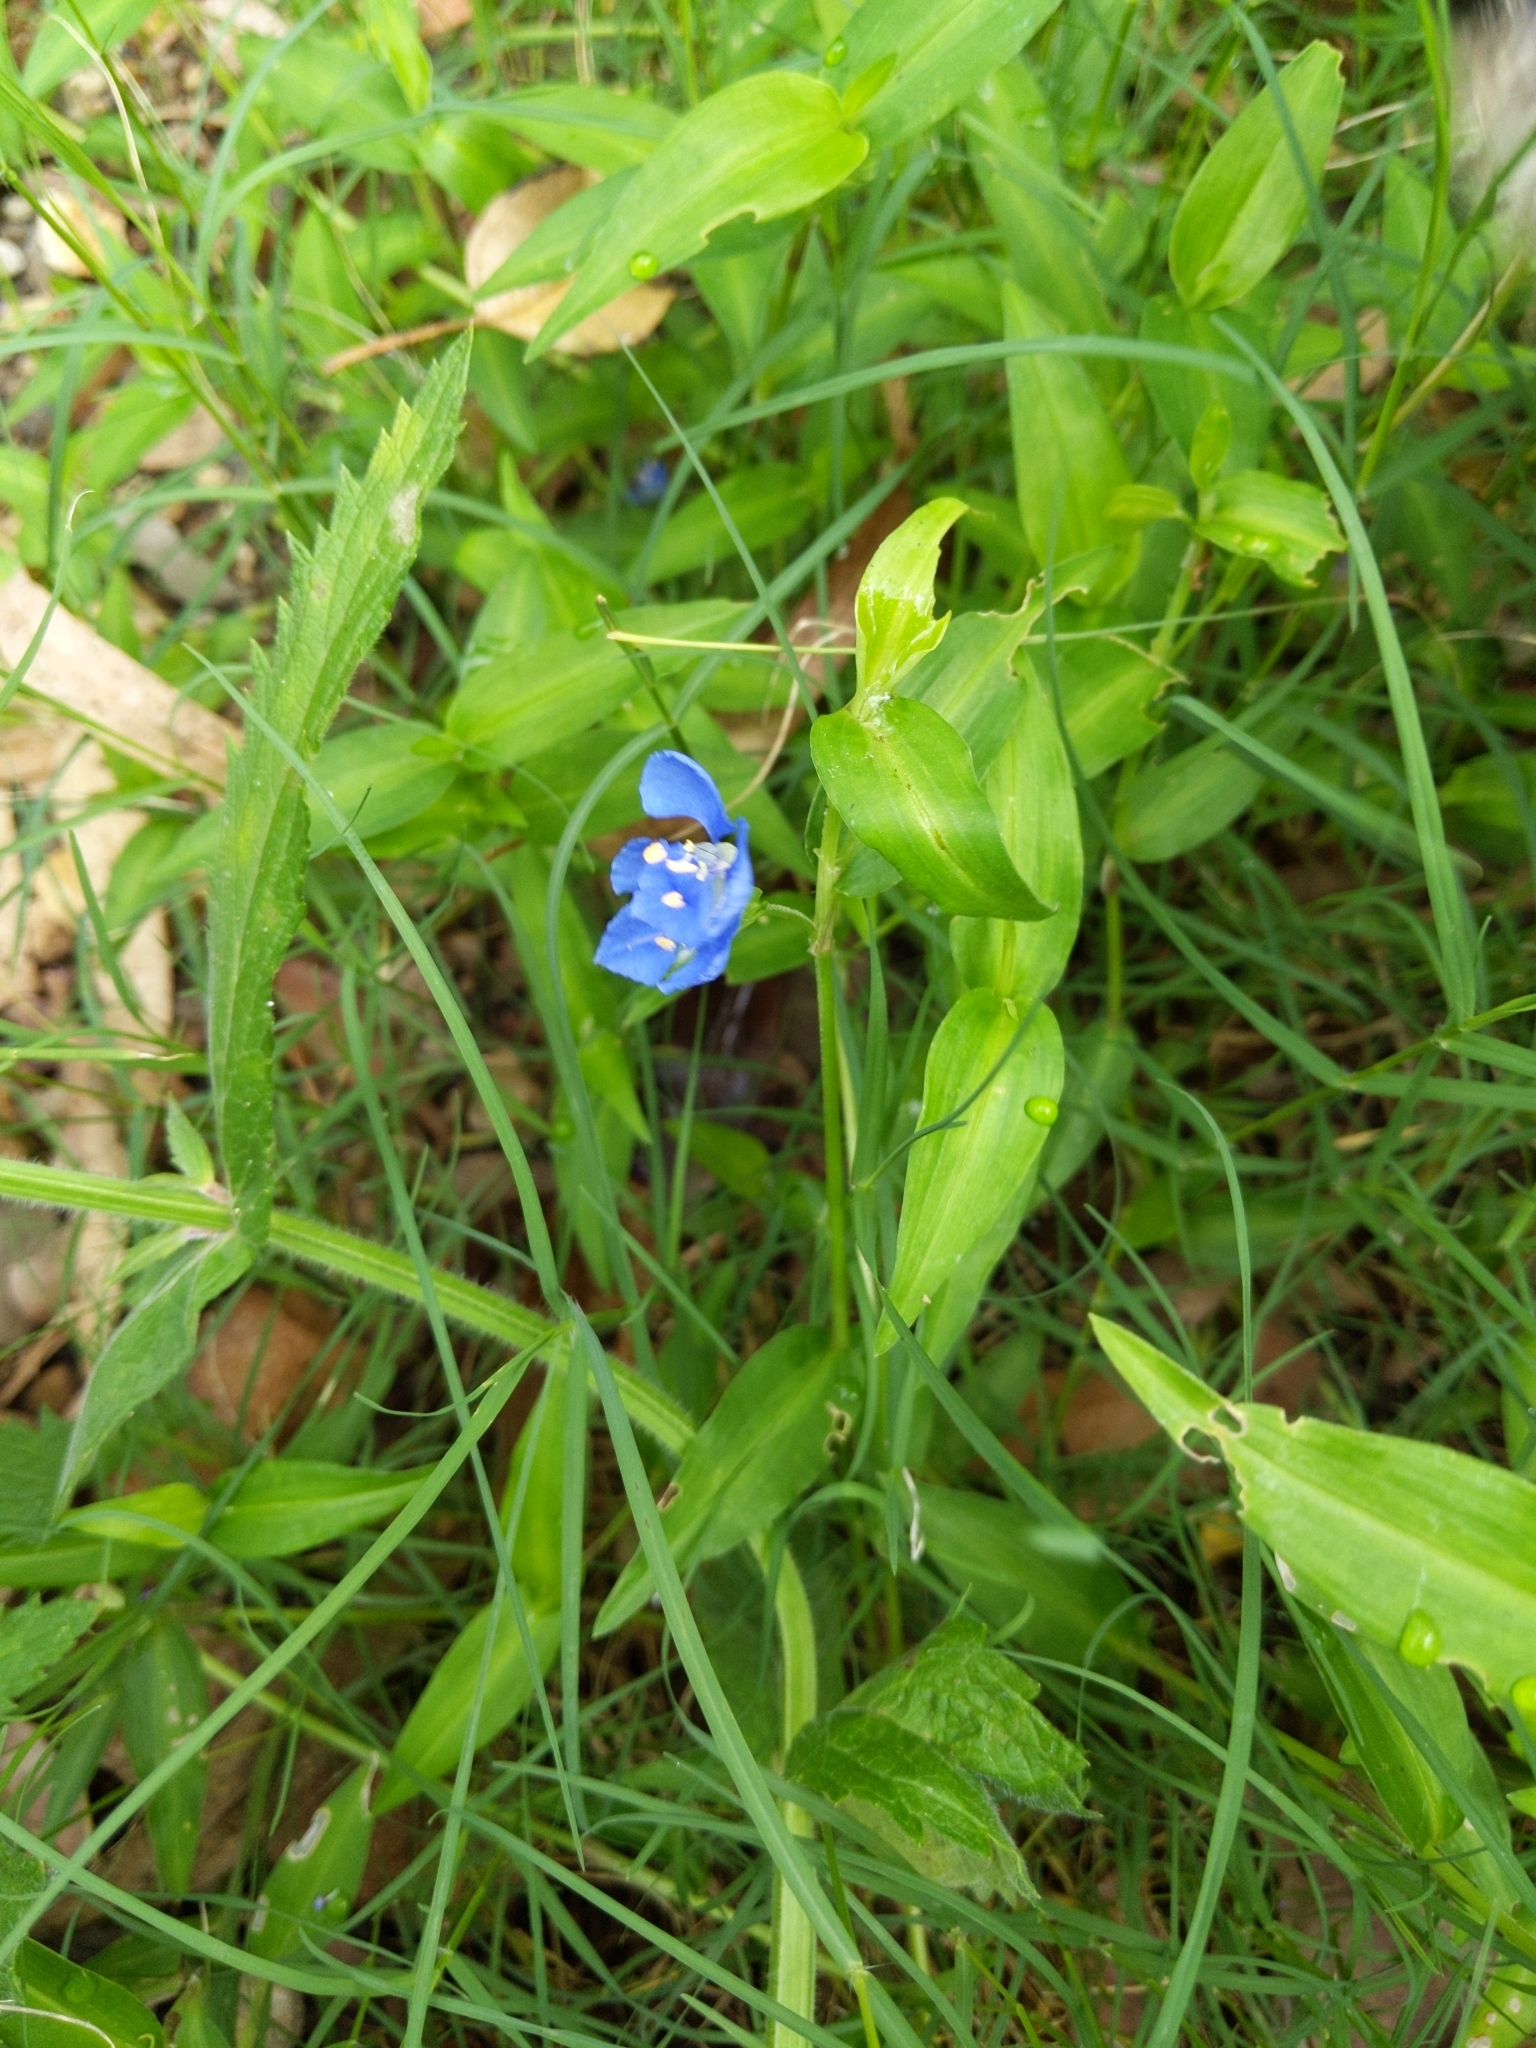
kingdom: Plantae
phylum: Tracheophyta
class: Liliopsida
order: Commelinales
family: Commelinaceae
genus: Commelina
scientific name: Commelina cyanea
